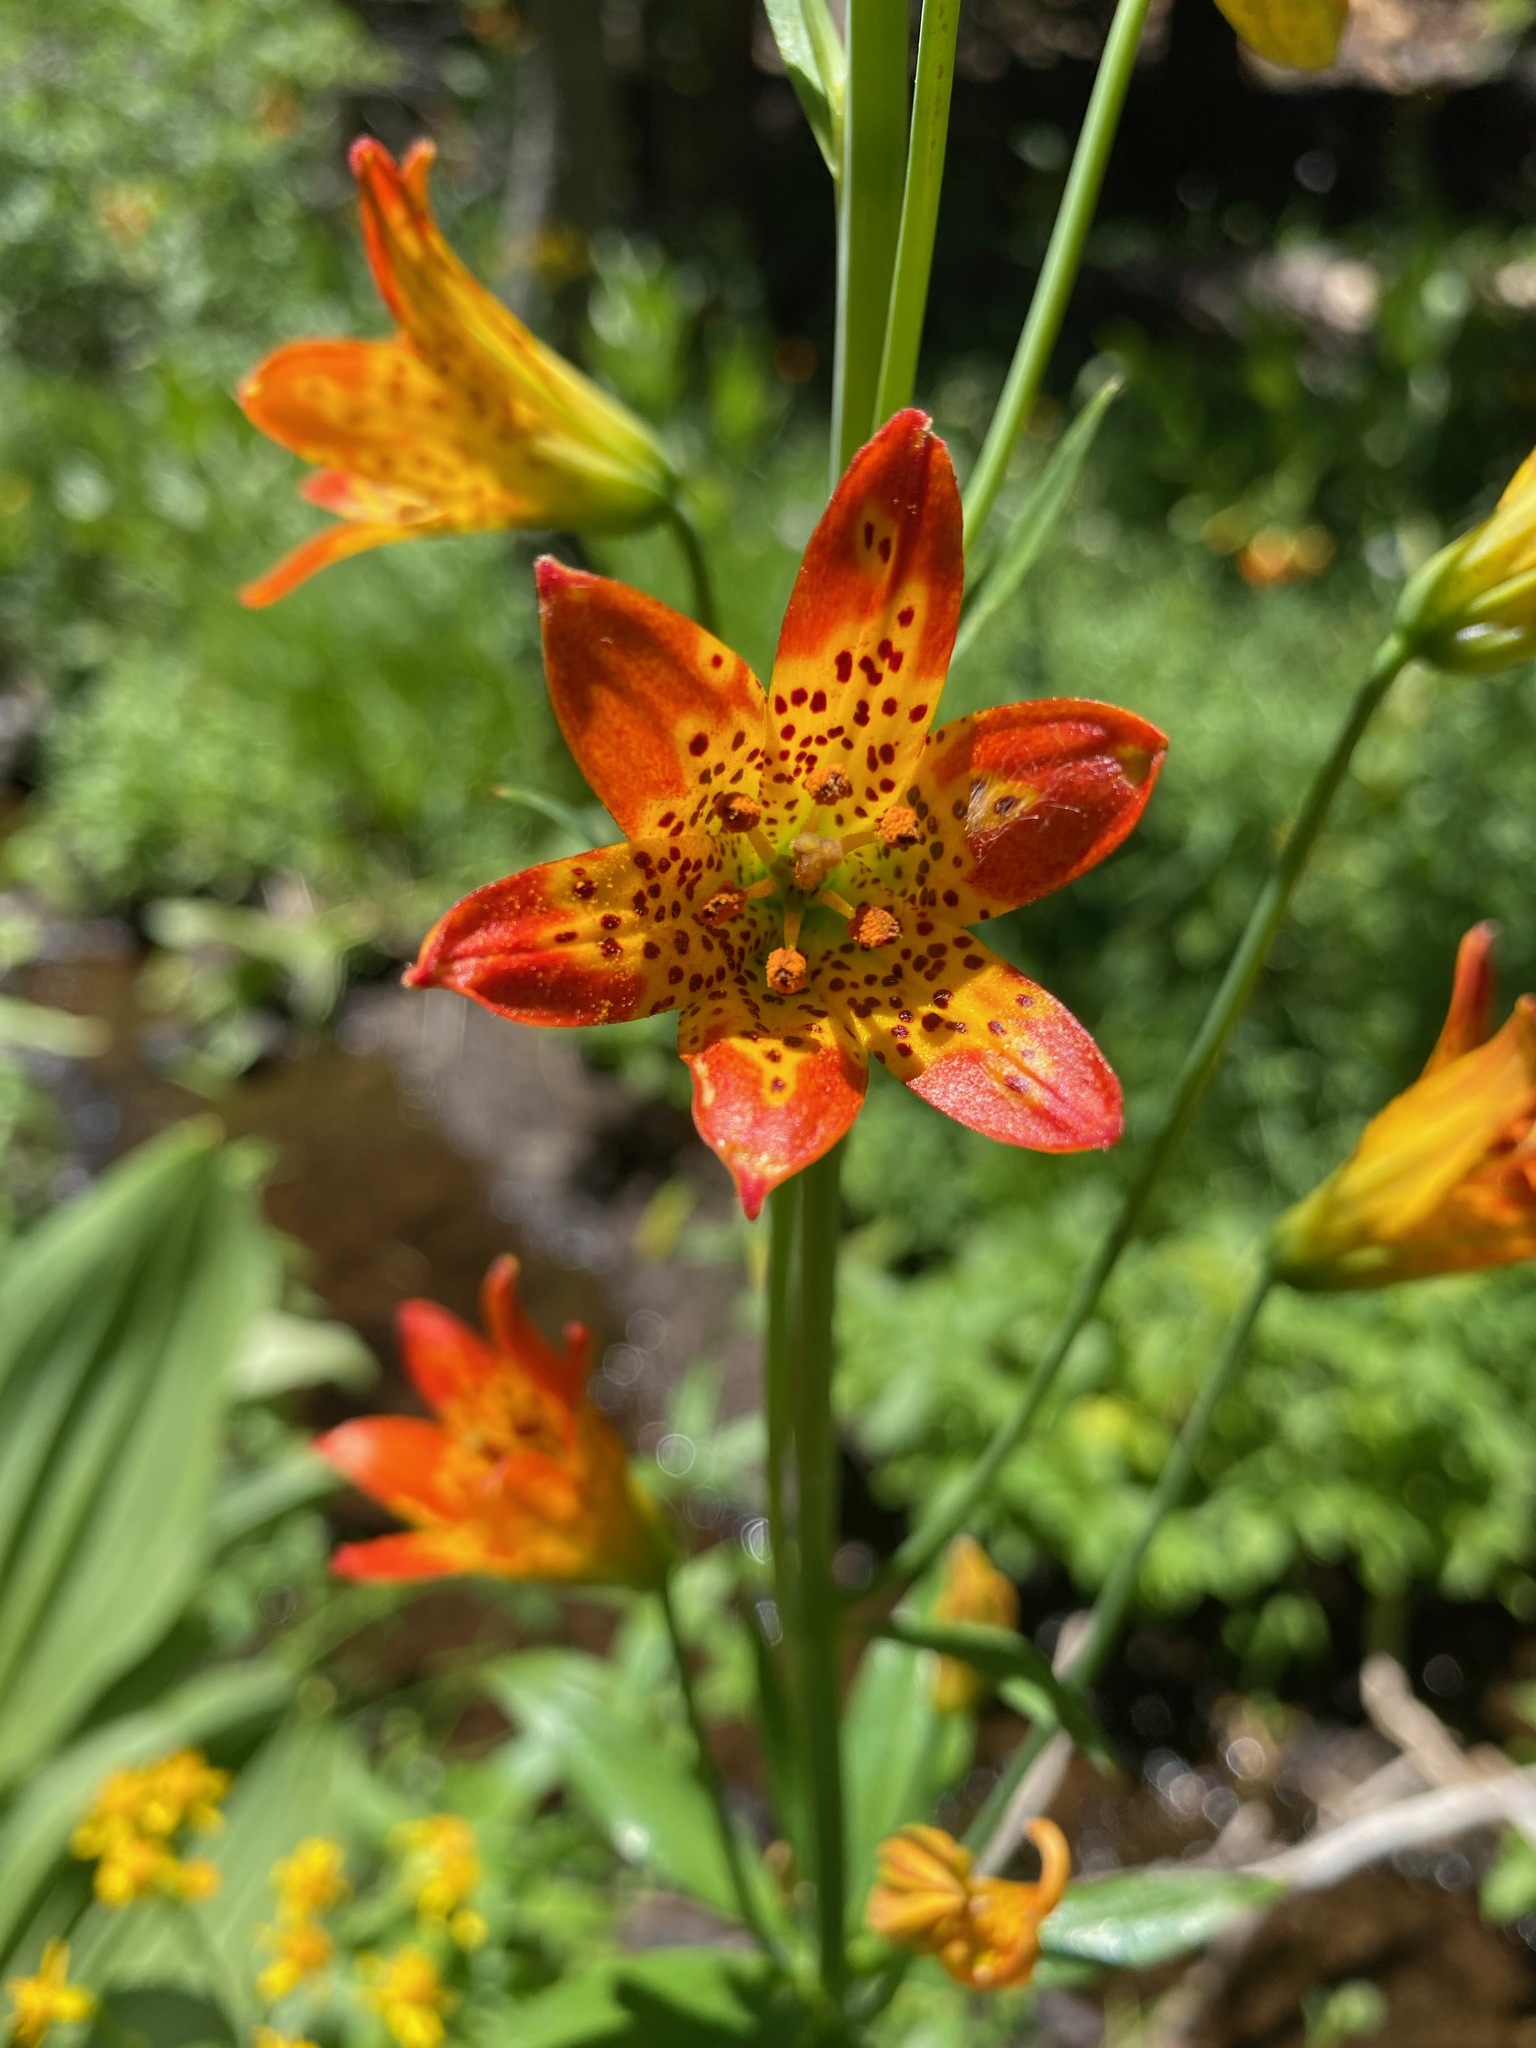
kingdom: Plantae
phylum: Tracheophyta
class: Liliopsida
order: Liliales
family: Liliaceae
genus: Lilium
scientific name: Lilium parvum
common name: Alpine lily
